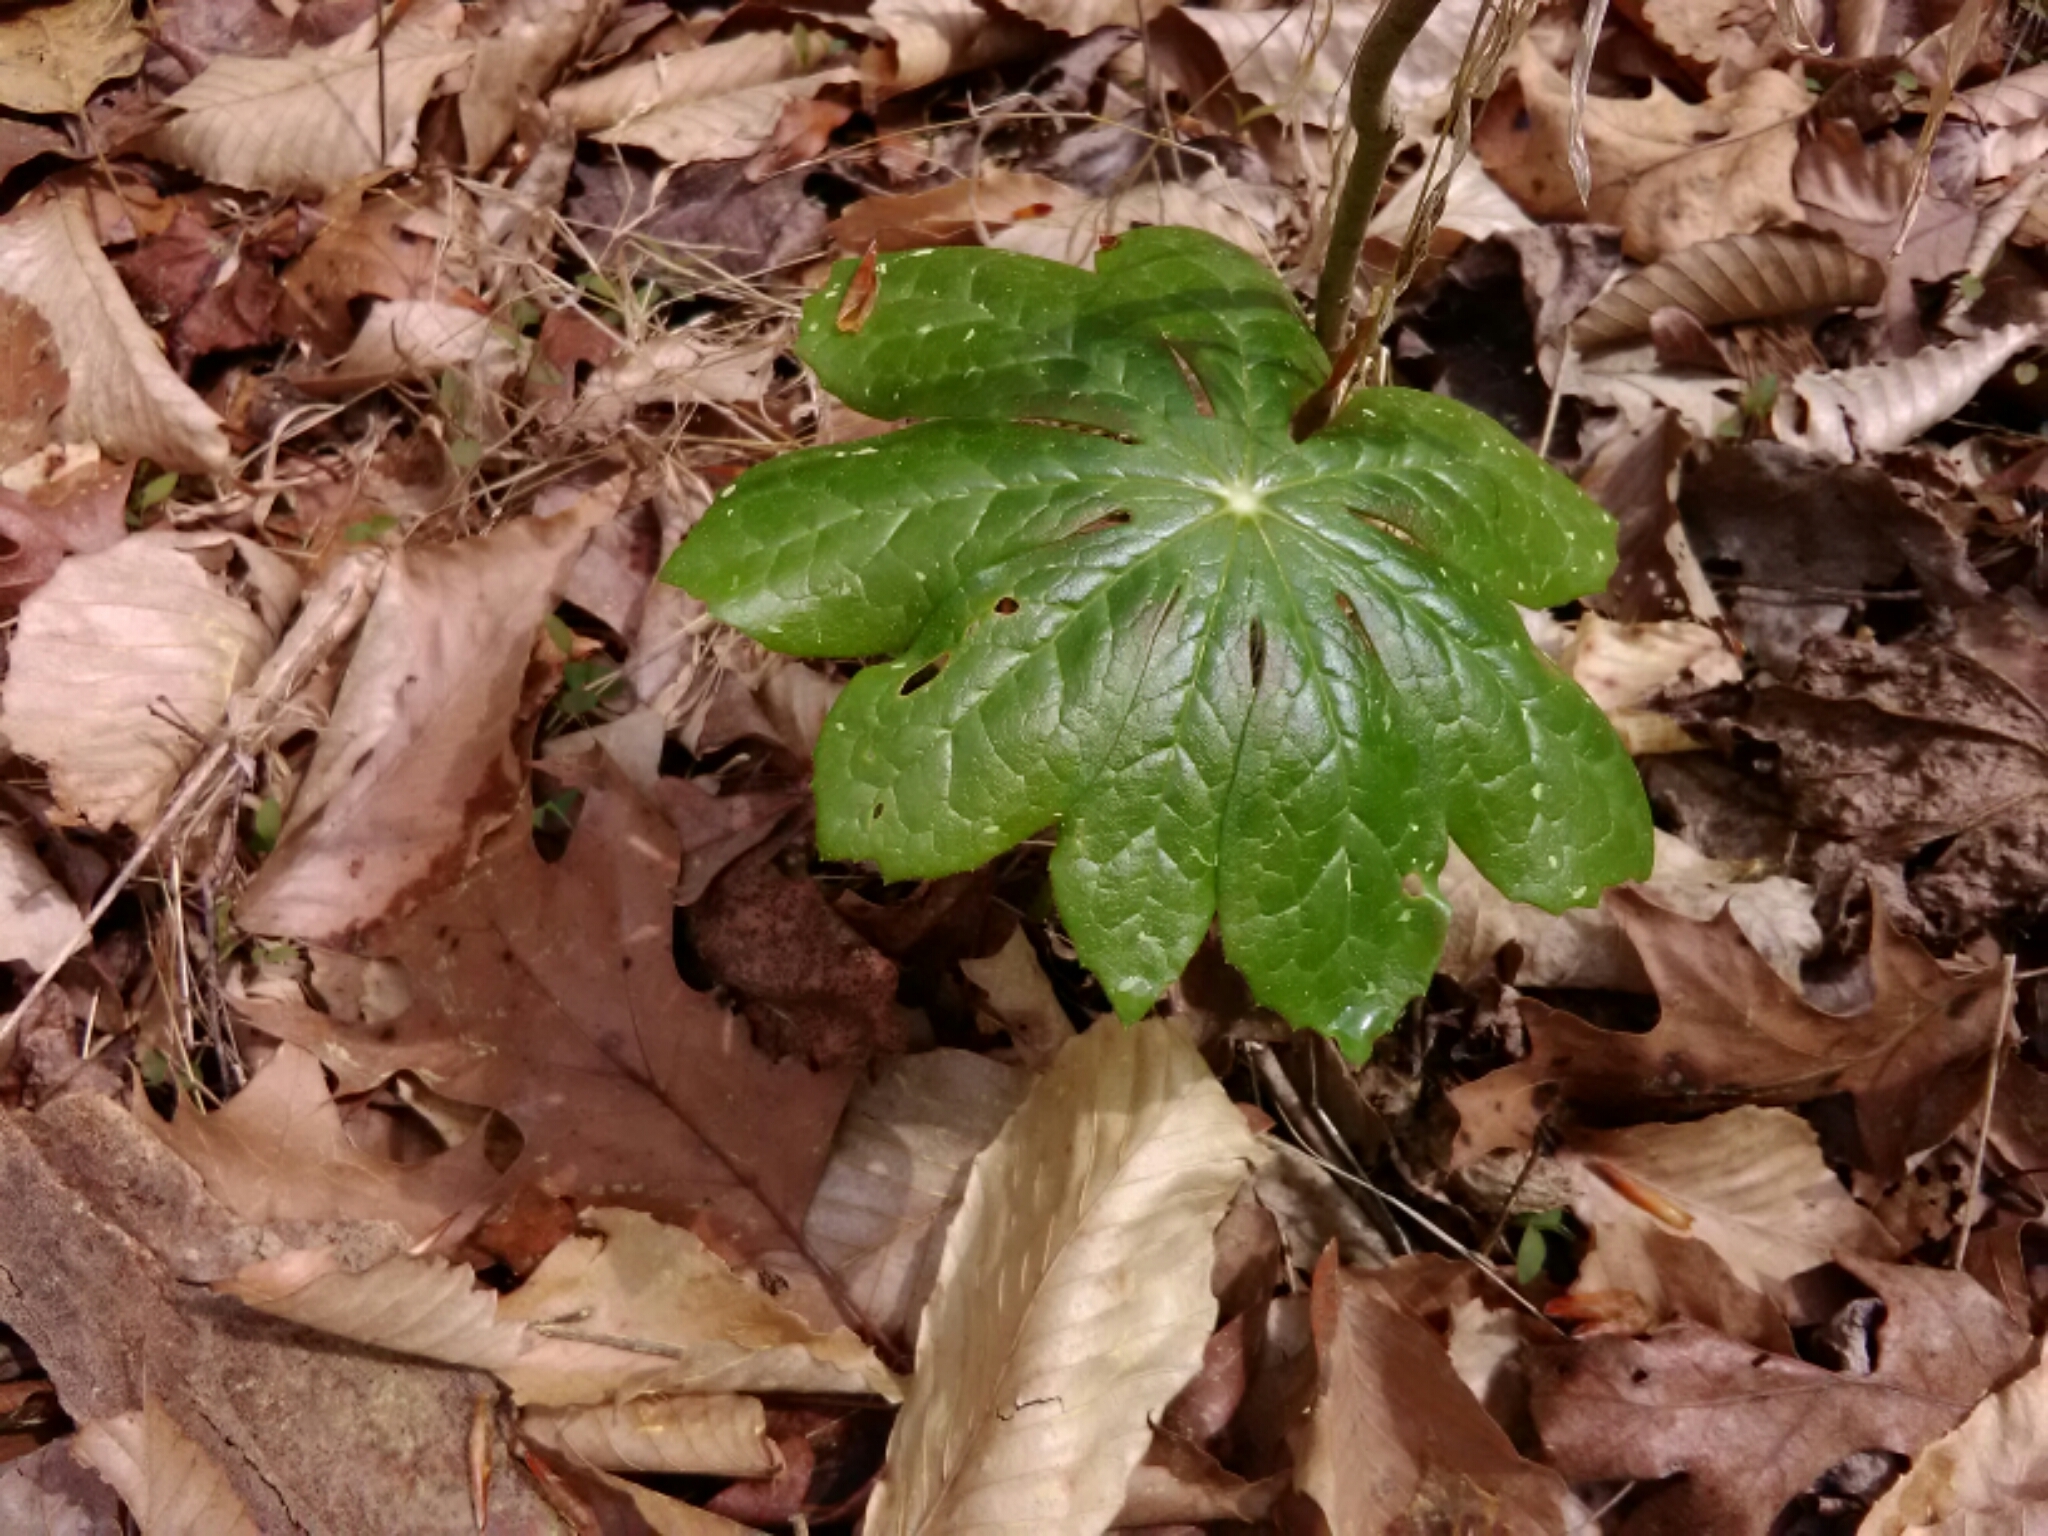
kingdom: Plantae
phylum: Tracheophyta
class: Magnoliopsida
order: Ranunculales
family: Berberidaceae
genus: Podophyllum
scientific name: Podophyllum peltatum
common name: Wild mandrake
